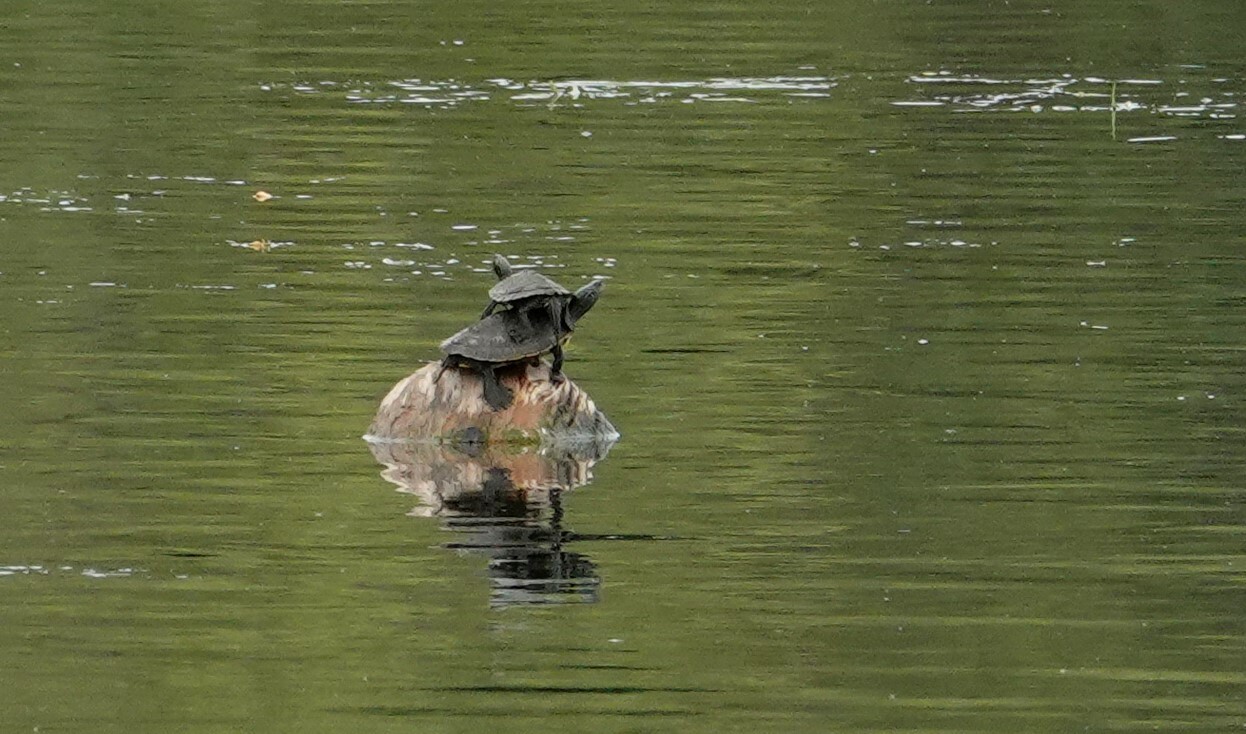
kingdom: Animalia
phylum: Chordata
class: Testudines
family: Emydidae
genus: Graptemys
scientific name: Graptemys geographica
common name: Common map turtle
